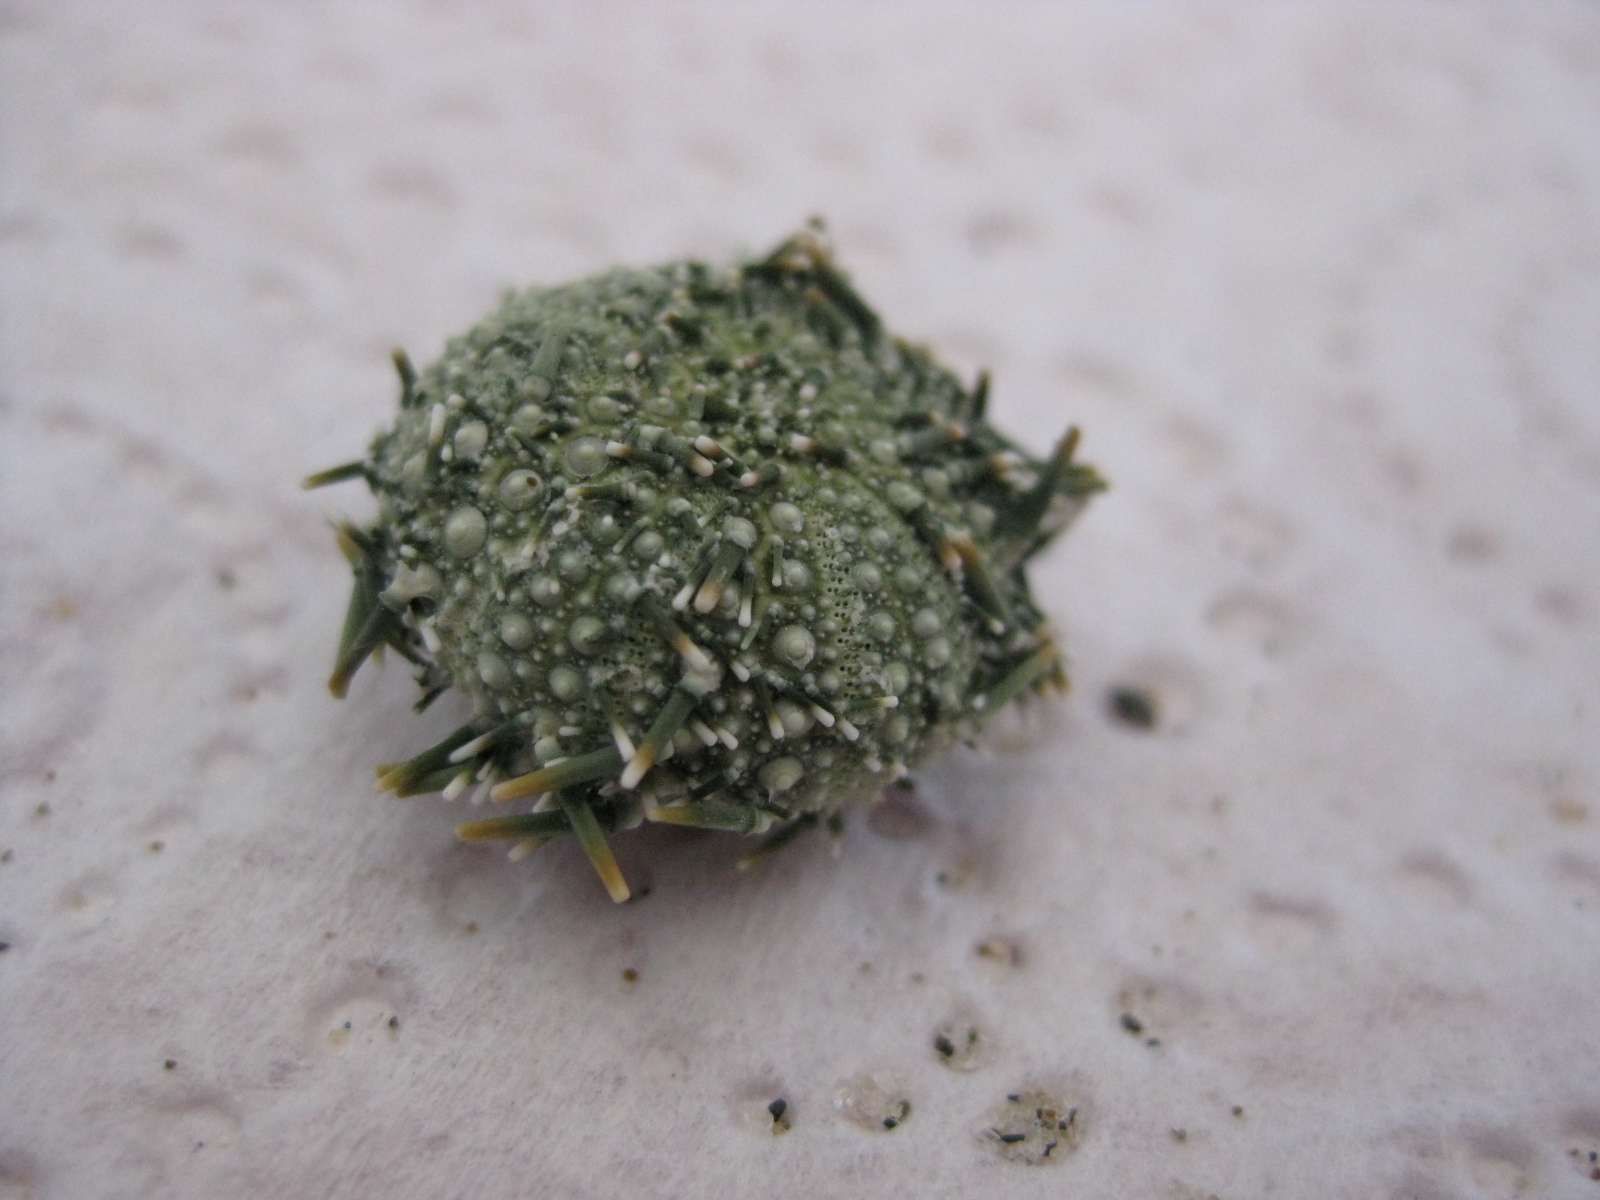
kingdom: Animalia
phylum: Echinodermata
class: Echinoidea
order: Camarodonta
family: Echinometridae
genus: Evechinus
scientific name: Evechinus chloroticus
